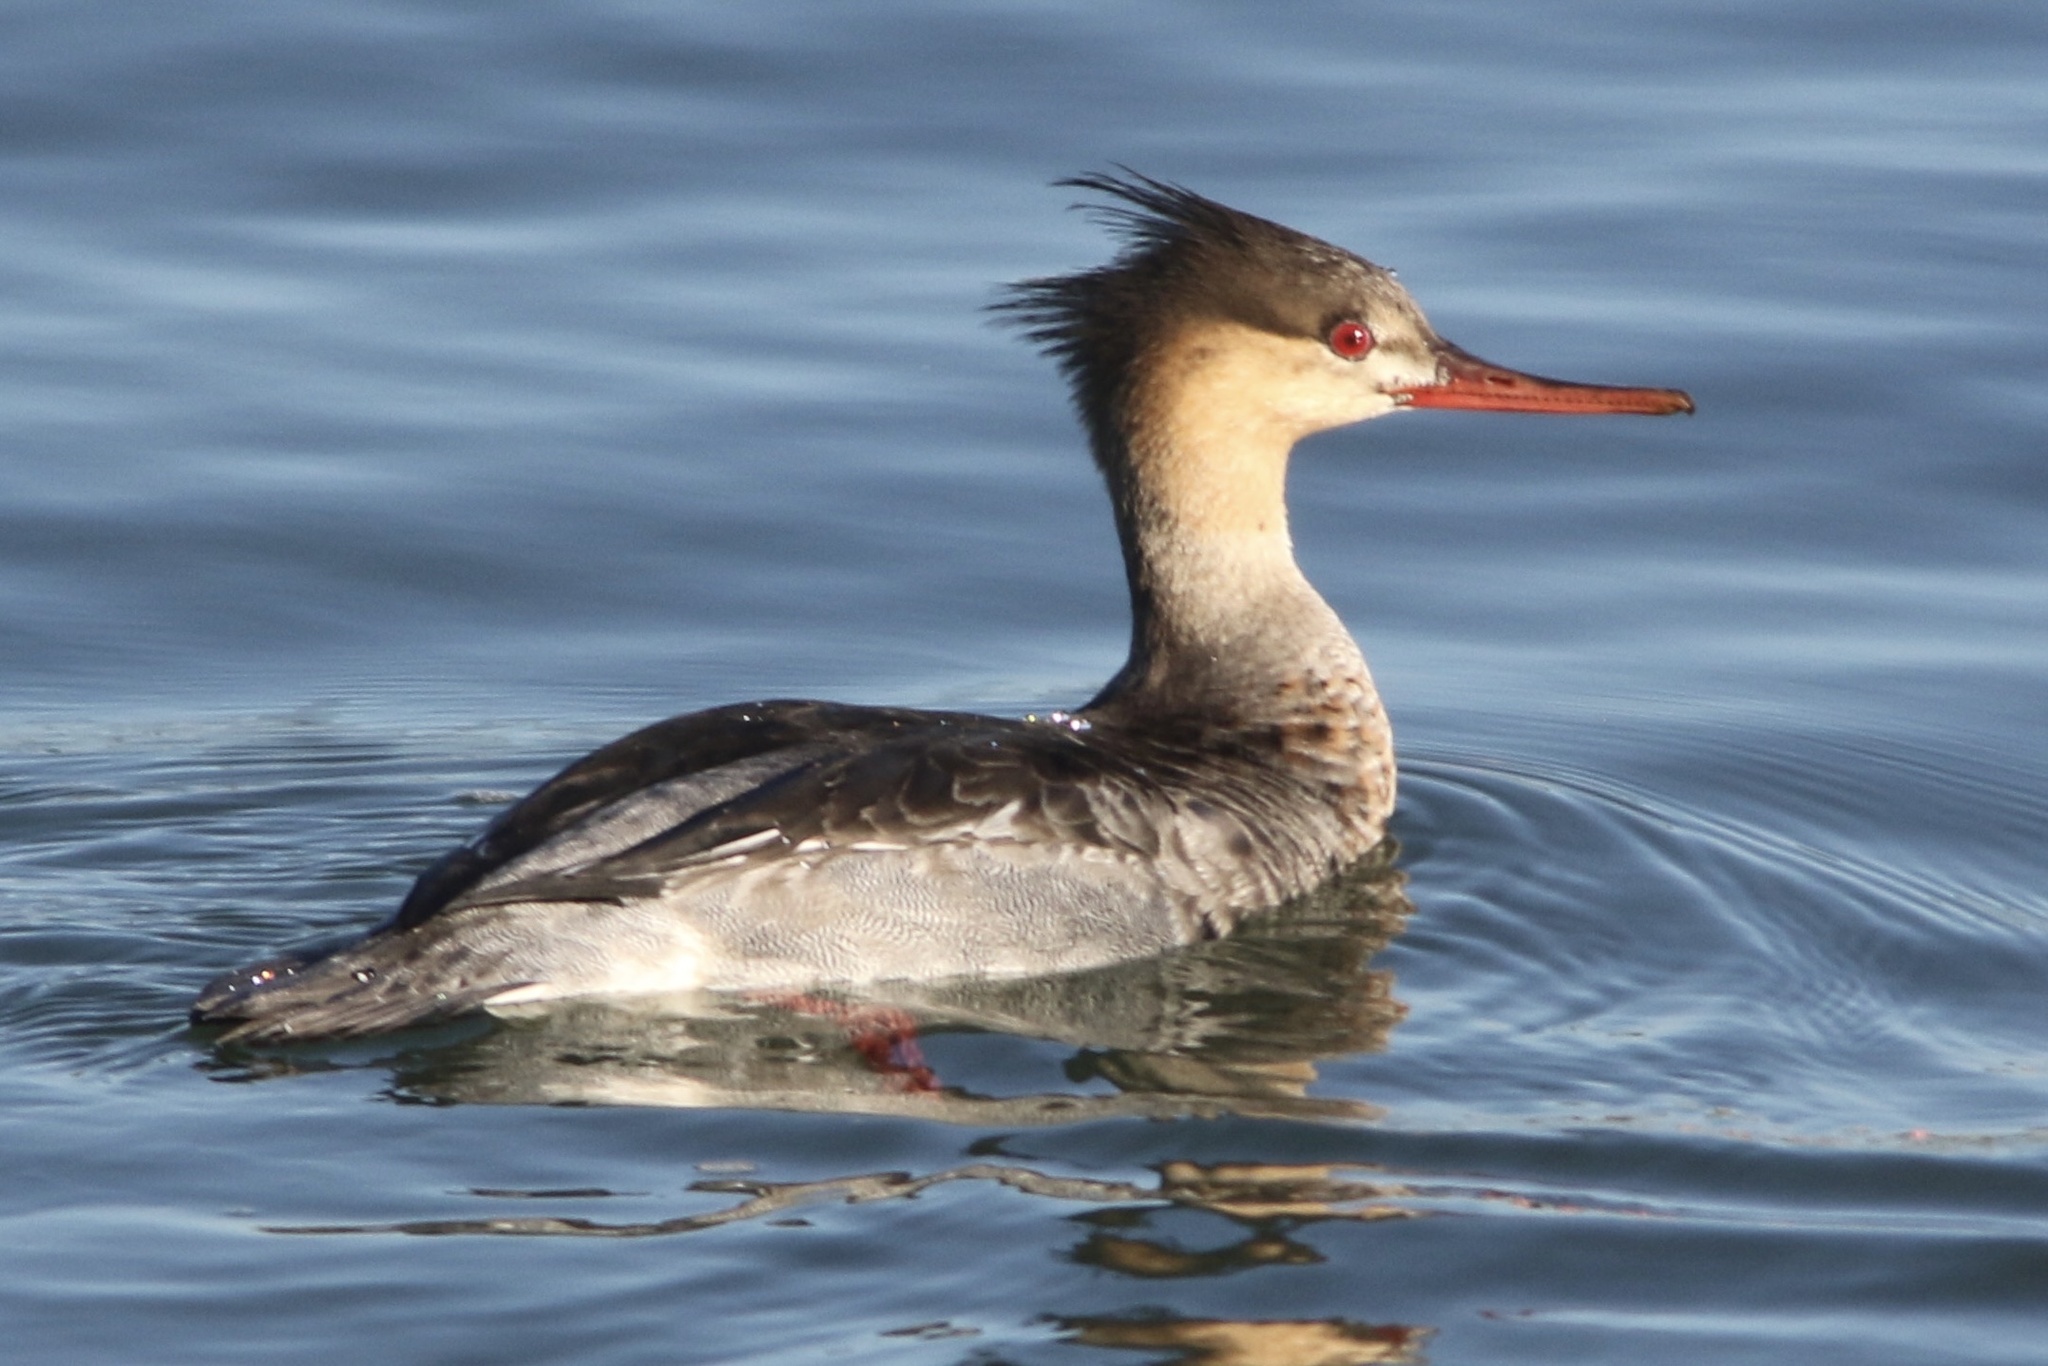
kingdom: Animalia
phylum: Chordata
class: Aves
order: Anseriformes
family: Anatidae
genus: Mergus
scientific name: Mergus serrator
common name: Red-breasted merganser
